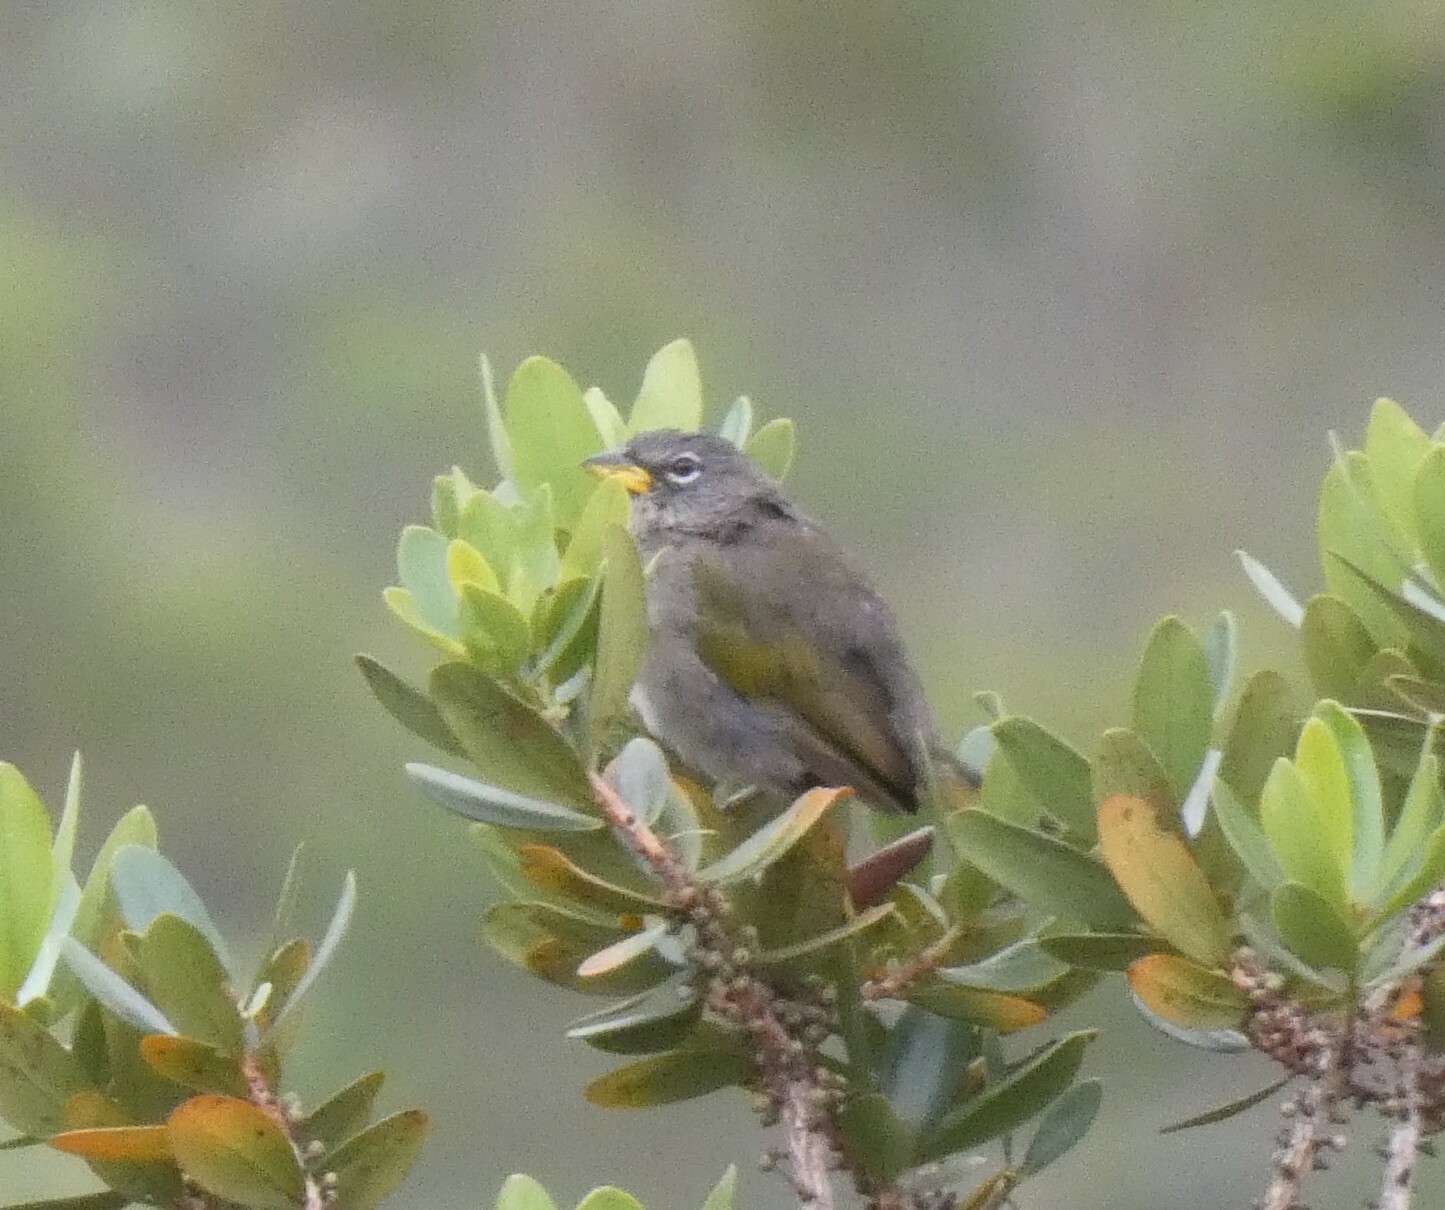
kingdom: Animalia
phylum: Chordata
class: Aves
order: Passeriformes
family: Thraupidae
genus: Embernagra
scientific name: Embernagra longicauda
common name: Serra finch
